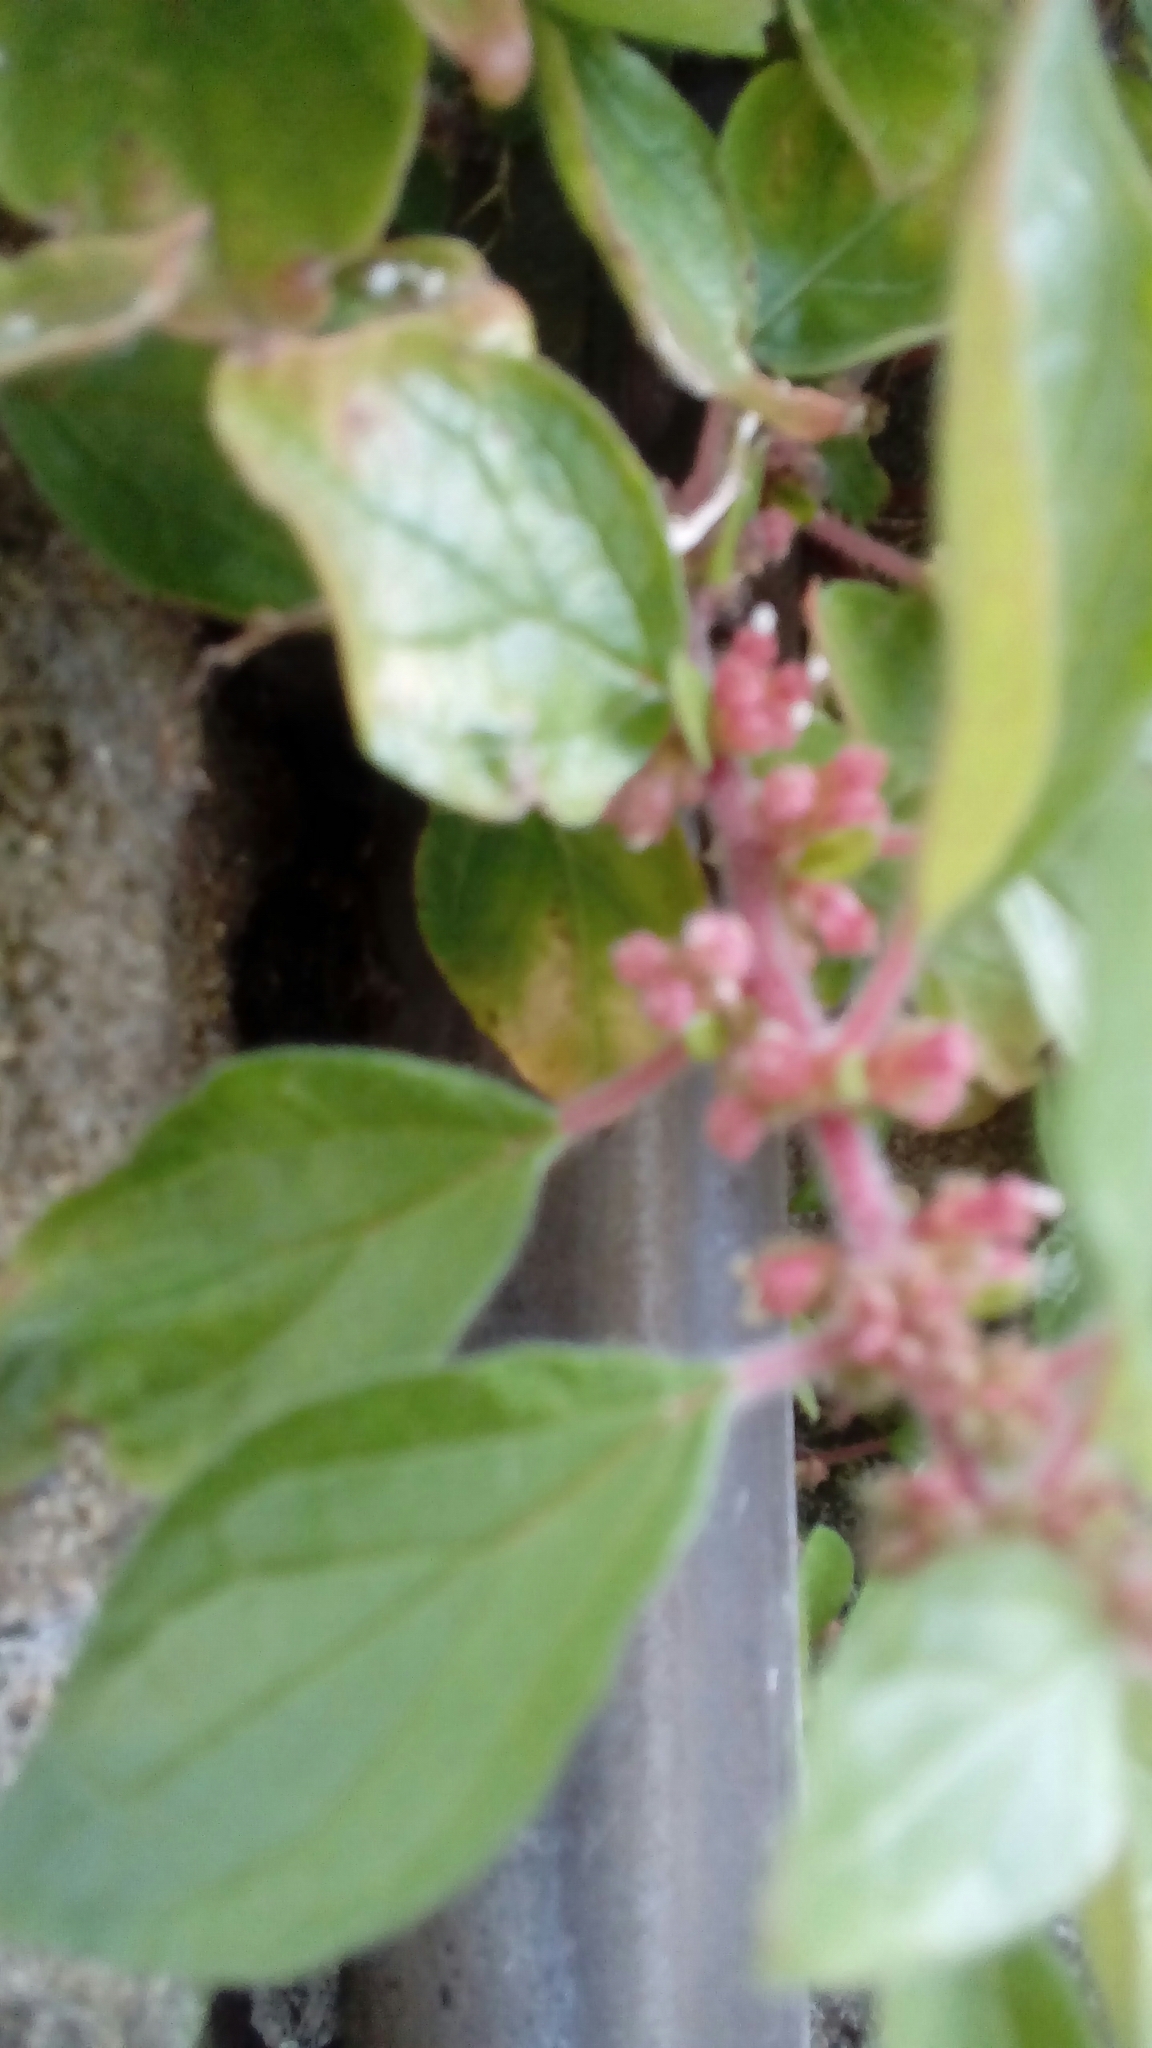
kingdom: Plantae
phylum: Tracheophyta
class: Magnoliopsida
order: Rosales
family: Urticaceae
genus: Parietaria
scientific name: Parietaria judaica
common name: Pellitory-of-the-wall
